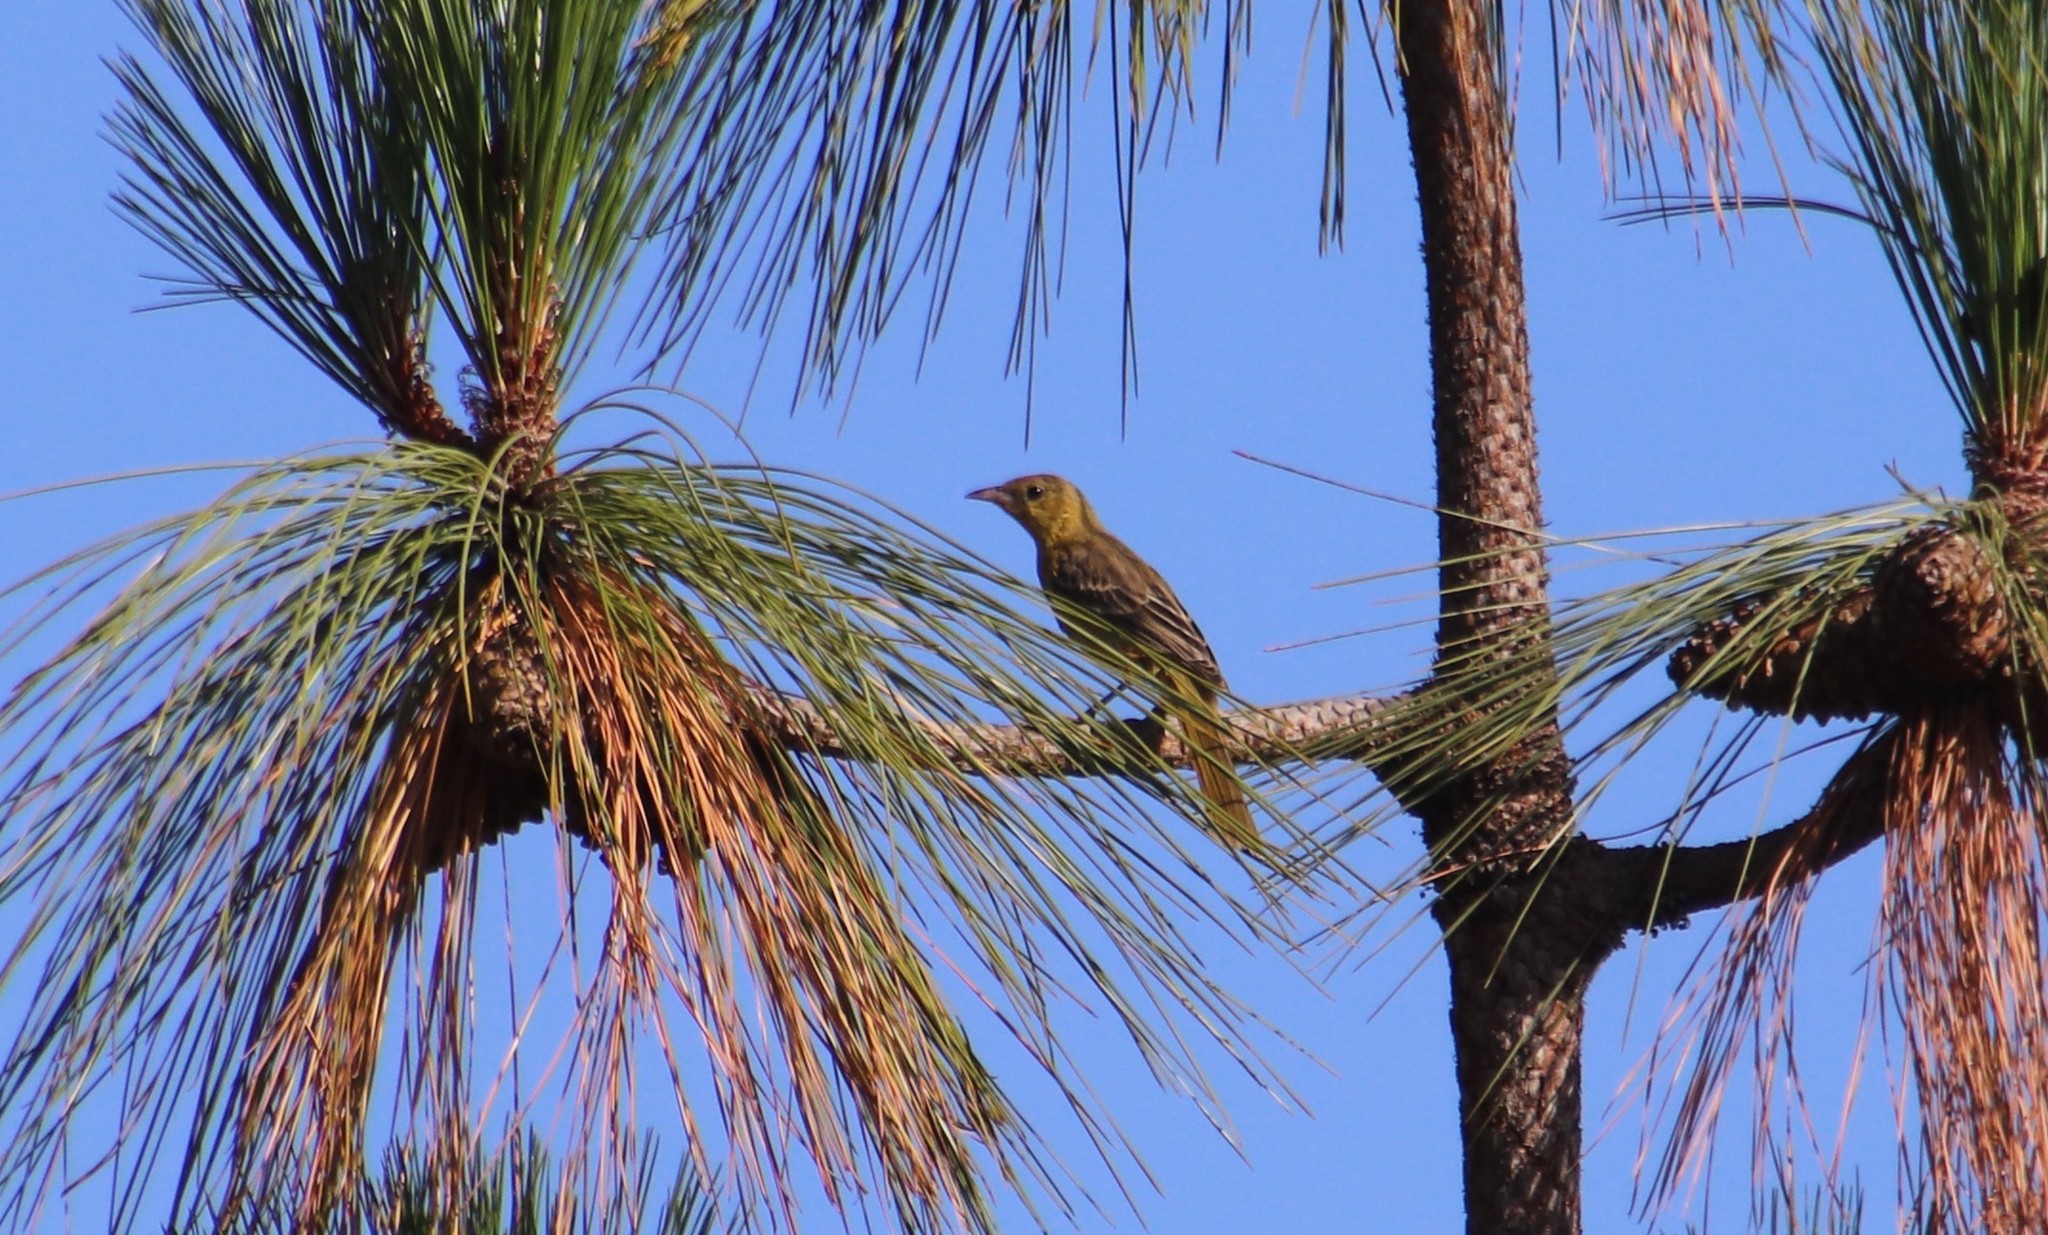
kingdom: Animalia
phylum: Chordata
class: Aves
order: Passeriformes
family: Icteridae
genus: Icterus
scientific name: Icterus cucullatus
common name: Hooded oriole
